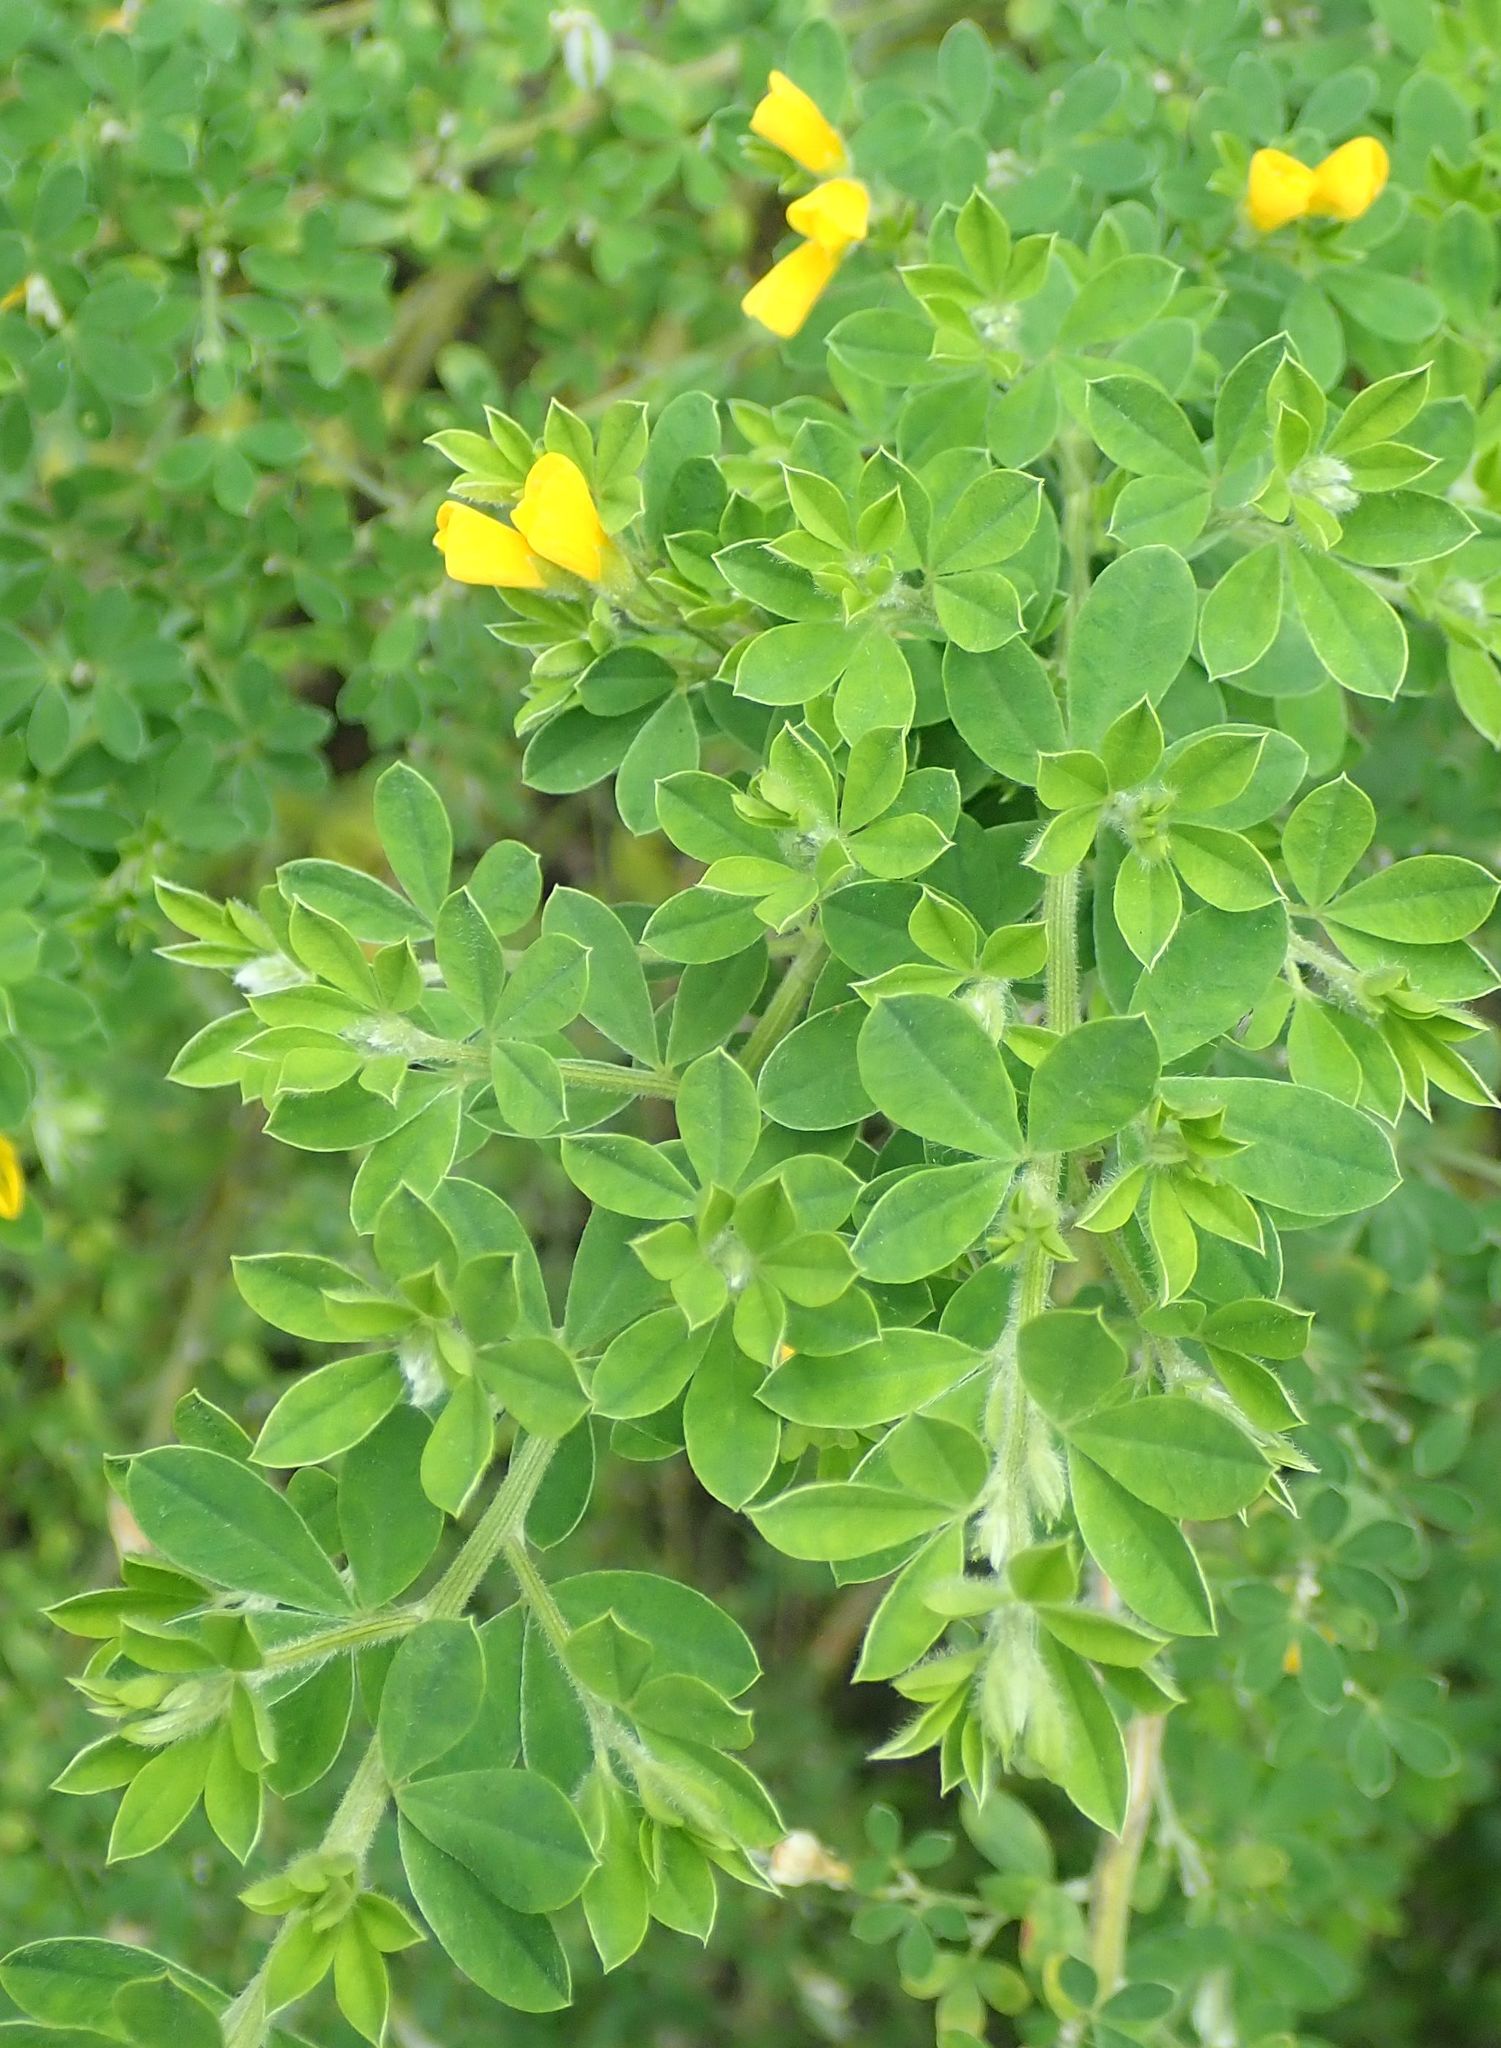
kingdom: Plantae
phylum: Tracheophyta
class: Magnoliopsida
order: Fabales
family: Fabaceae
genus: Genista
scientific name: Genista monspessulana
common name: Montpellier broom
